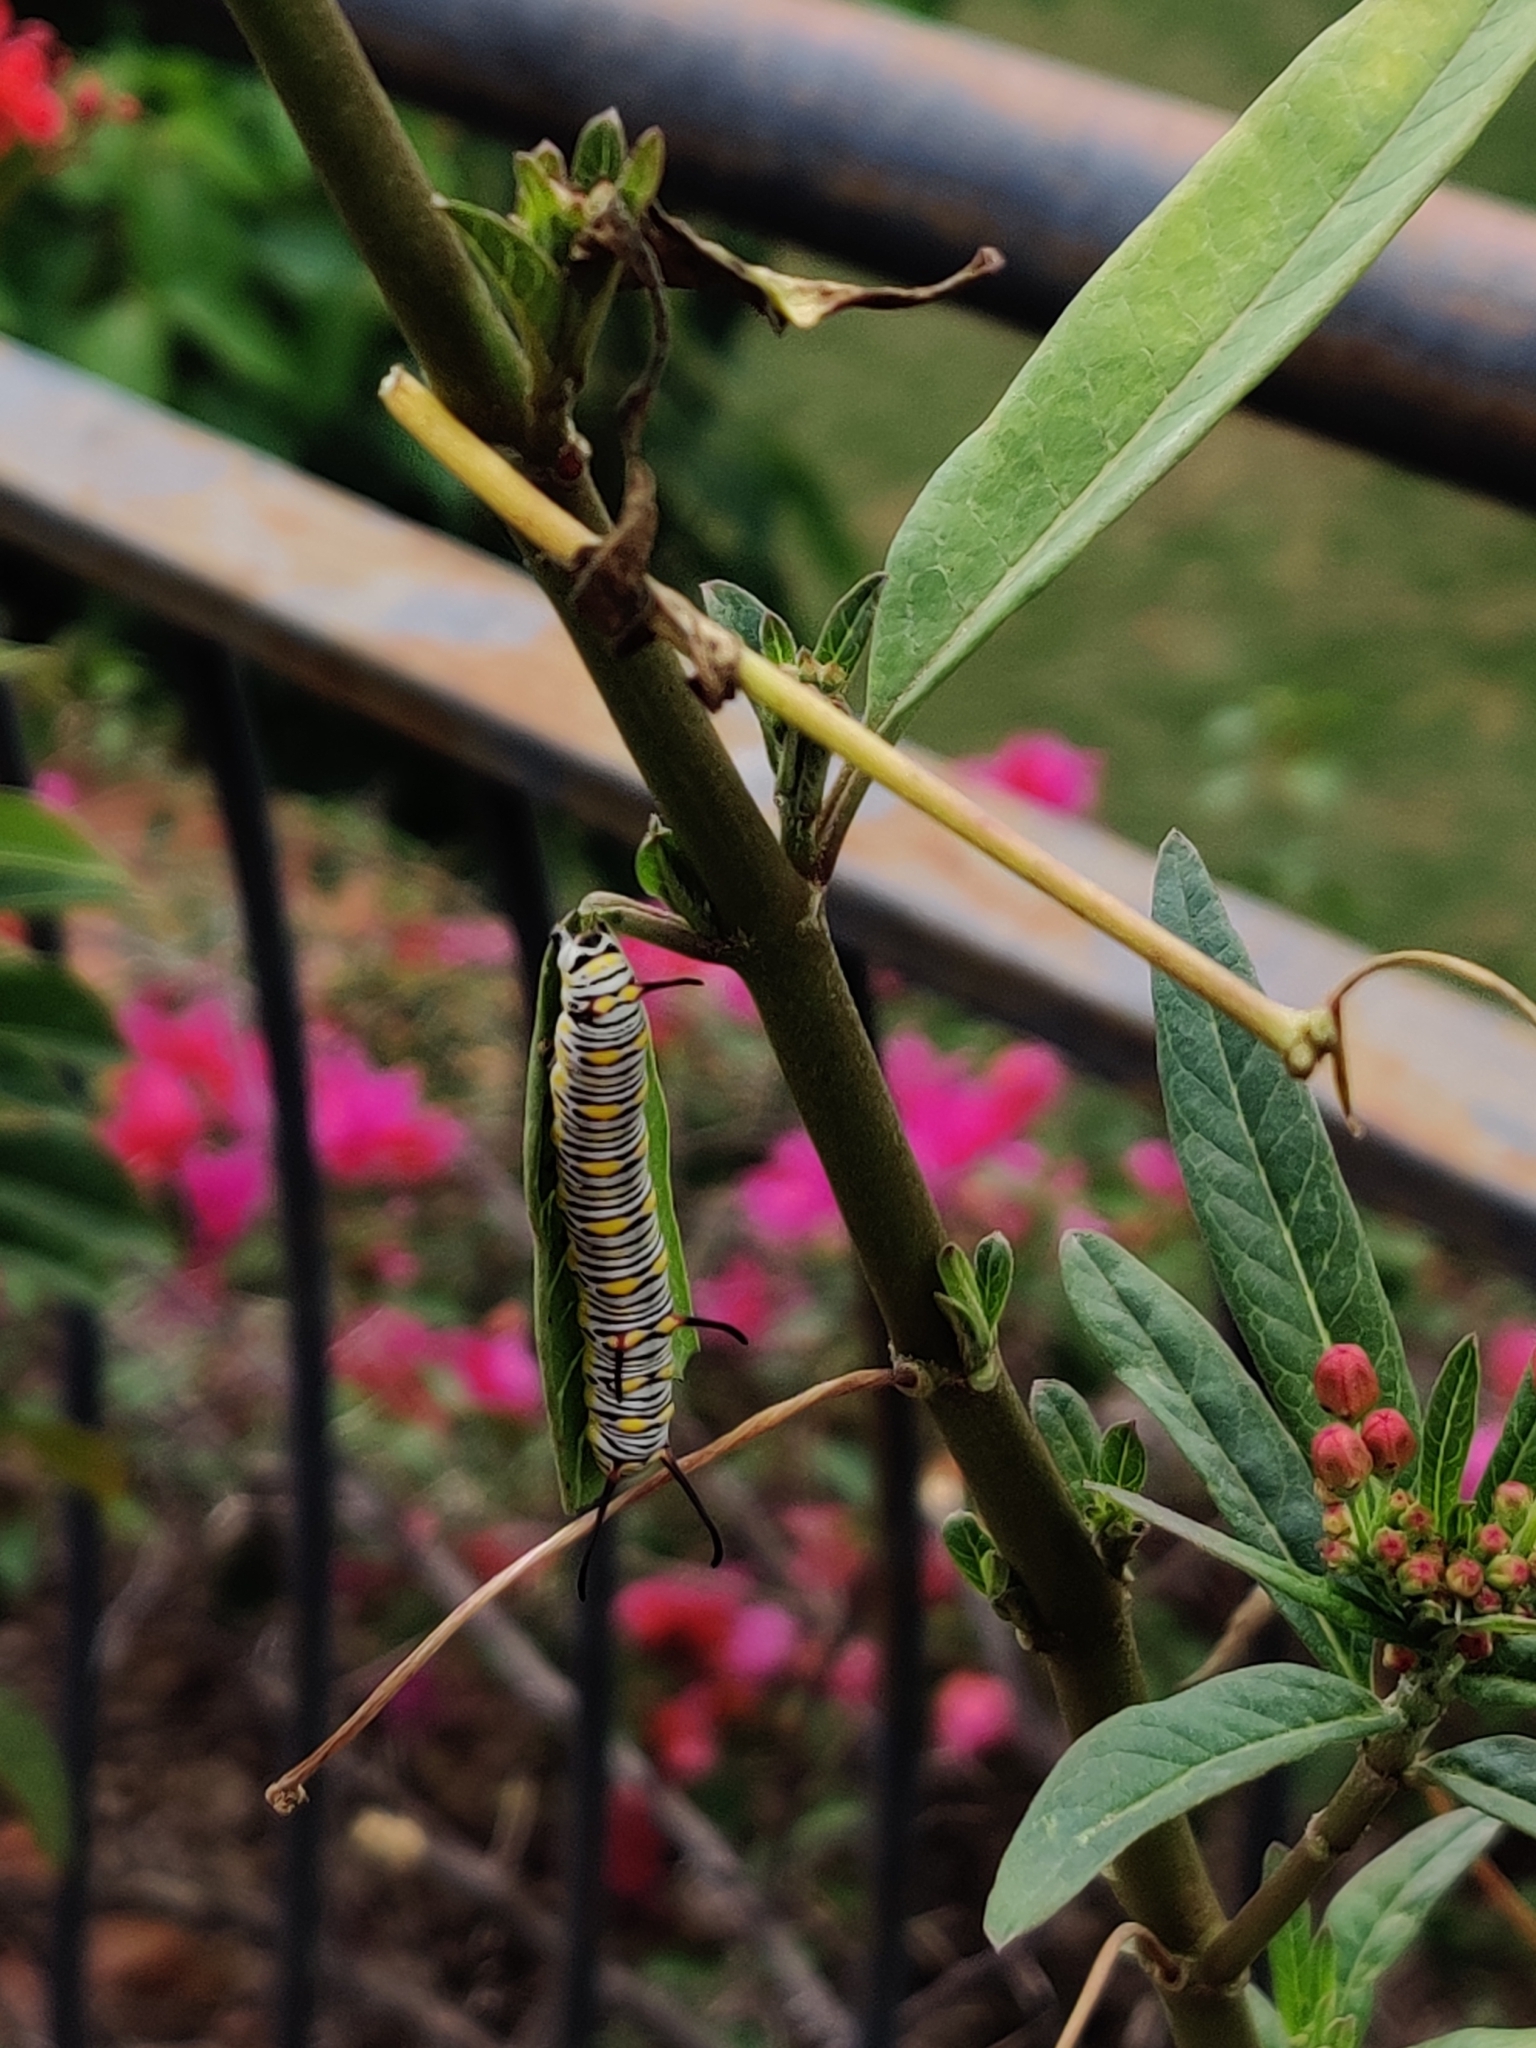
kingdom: Animalia
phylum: Arthropoda
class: Insecta
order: Lepidoptera
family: Nymphalidae
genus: Danaus
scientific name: Danaus chrysippus
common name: Plain tiger
